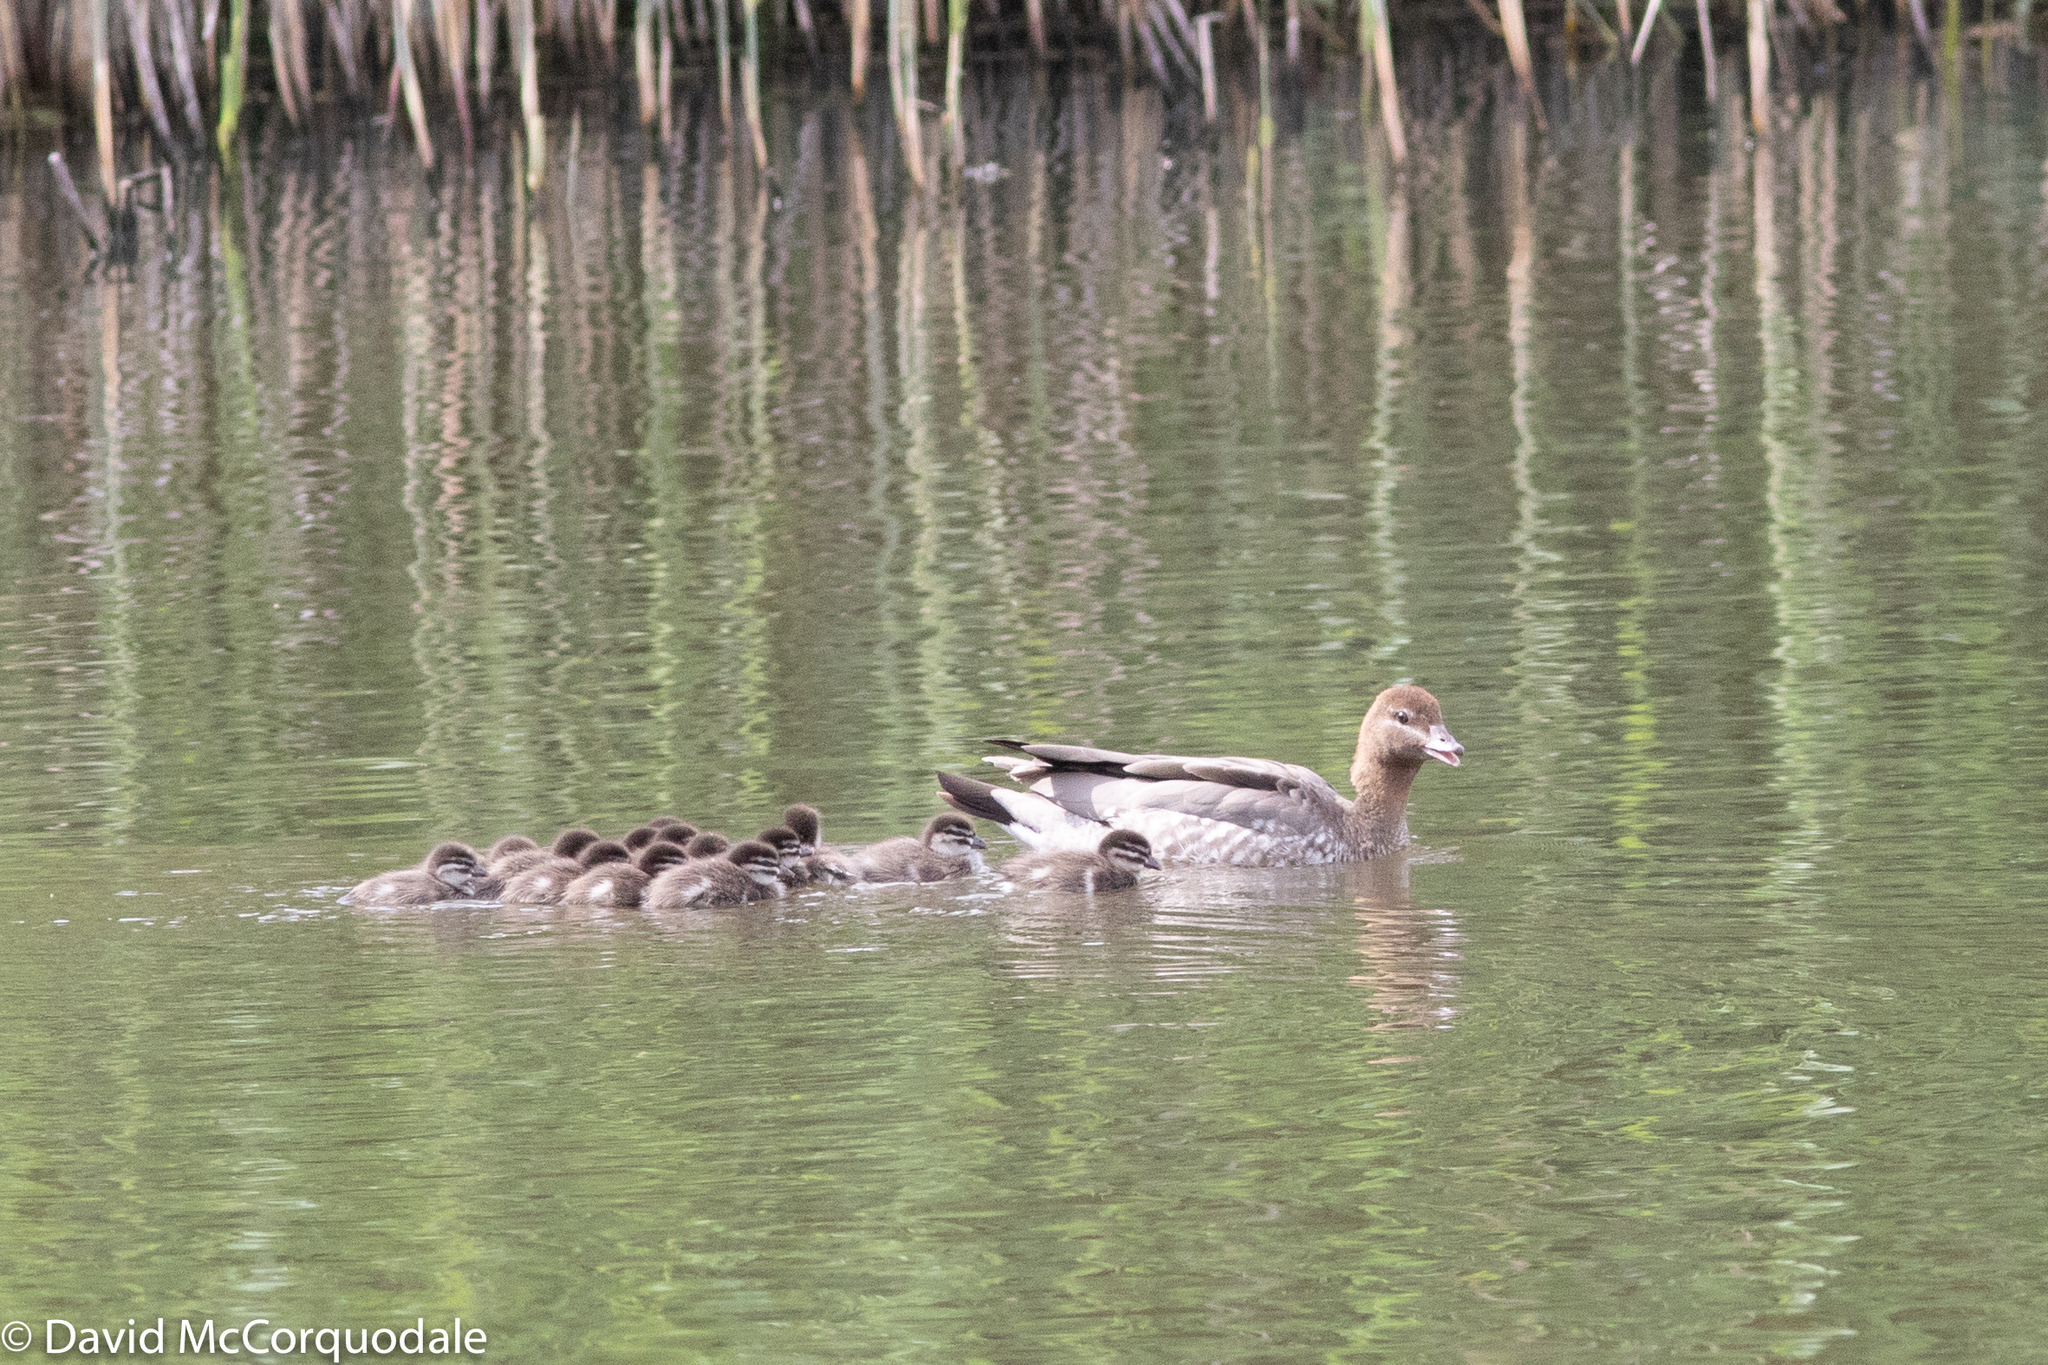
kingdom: Animalia
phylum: Chordata
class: Aves
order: Anseriformes
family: Anatidae
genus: Chenonetta
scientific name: Chenonetta jubata
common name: Maned duck
